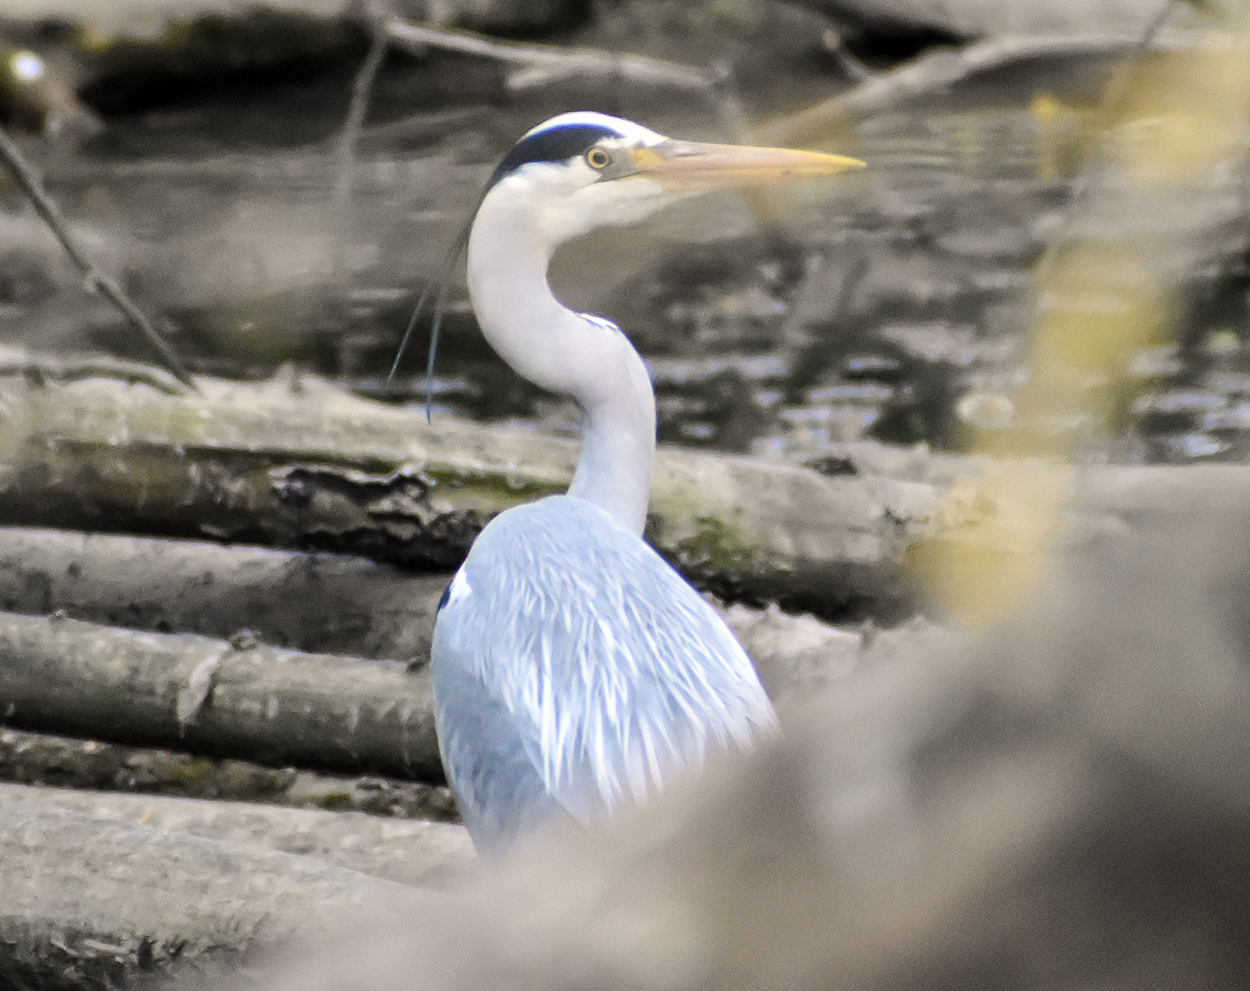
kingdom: Animalia
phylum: Chordata
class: Aves
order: Pelecaniformes
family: Ardeidae
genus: Ardea
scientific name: Ardea cinerea
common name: Grey heron
